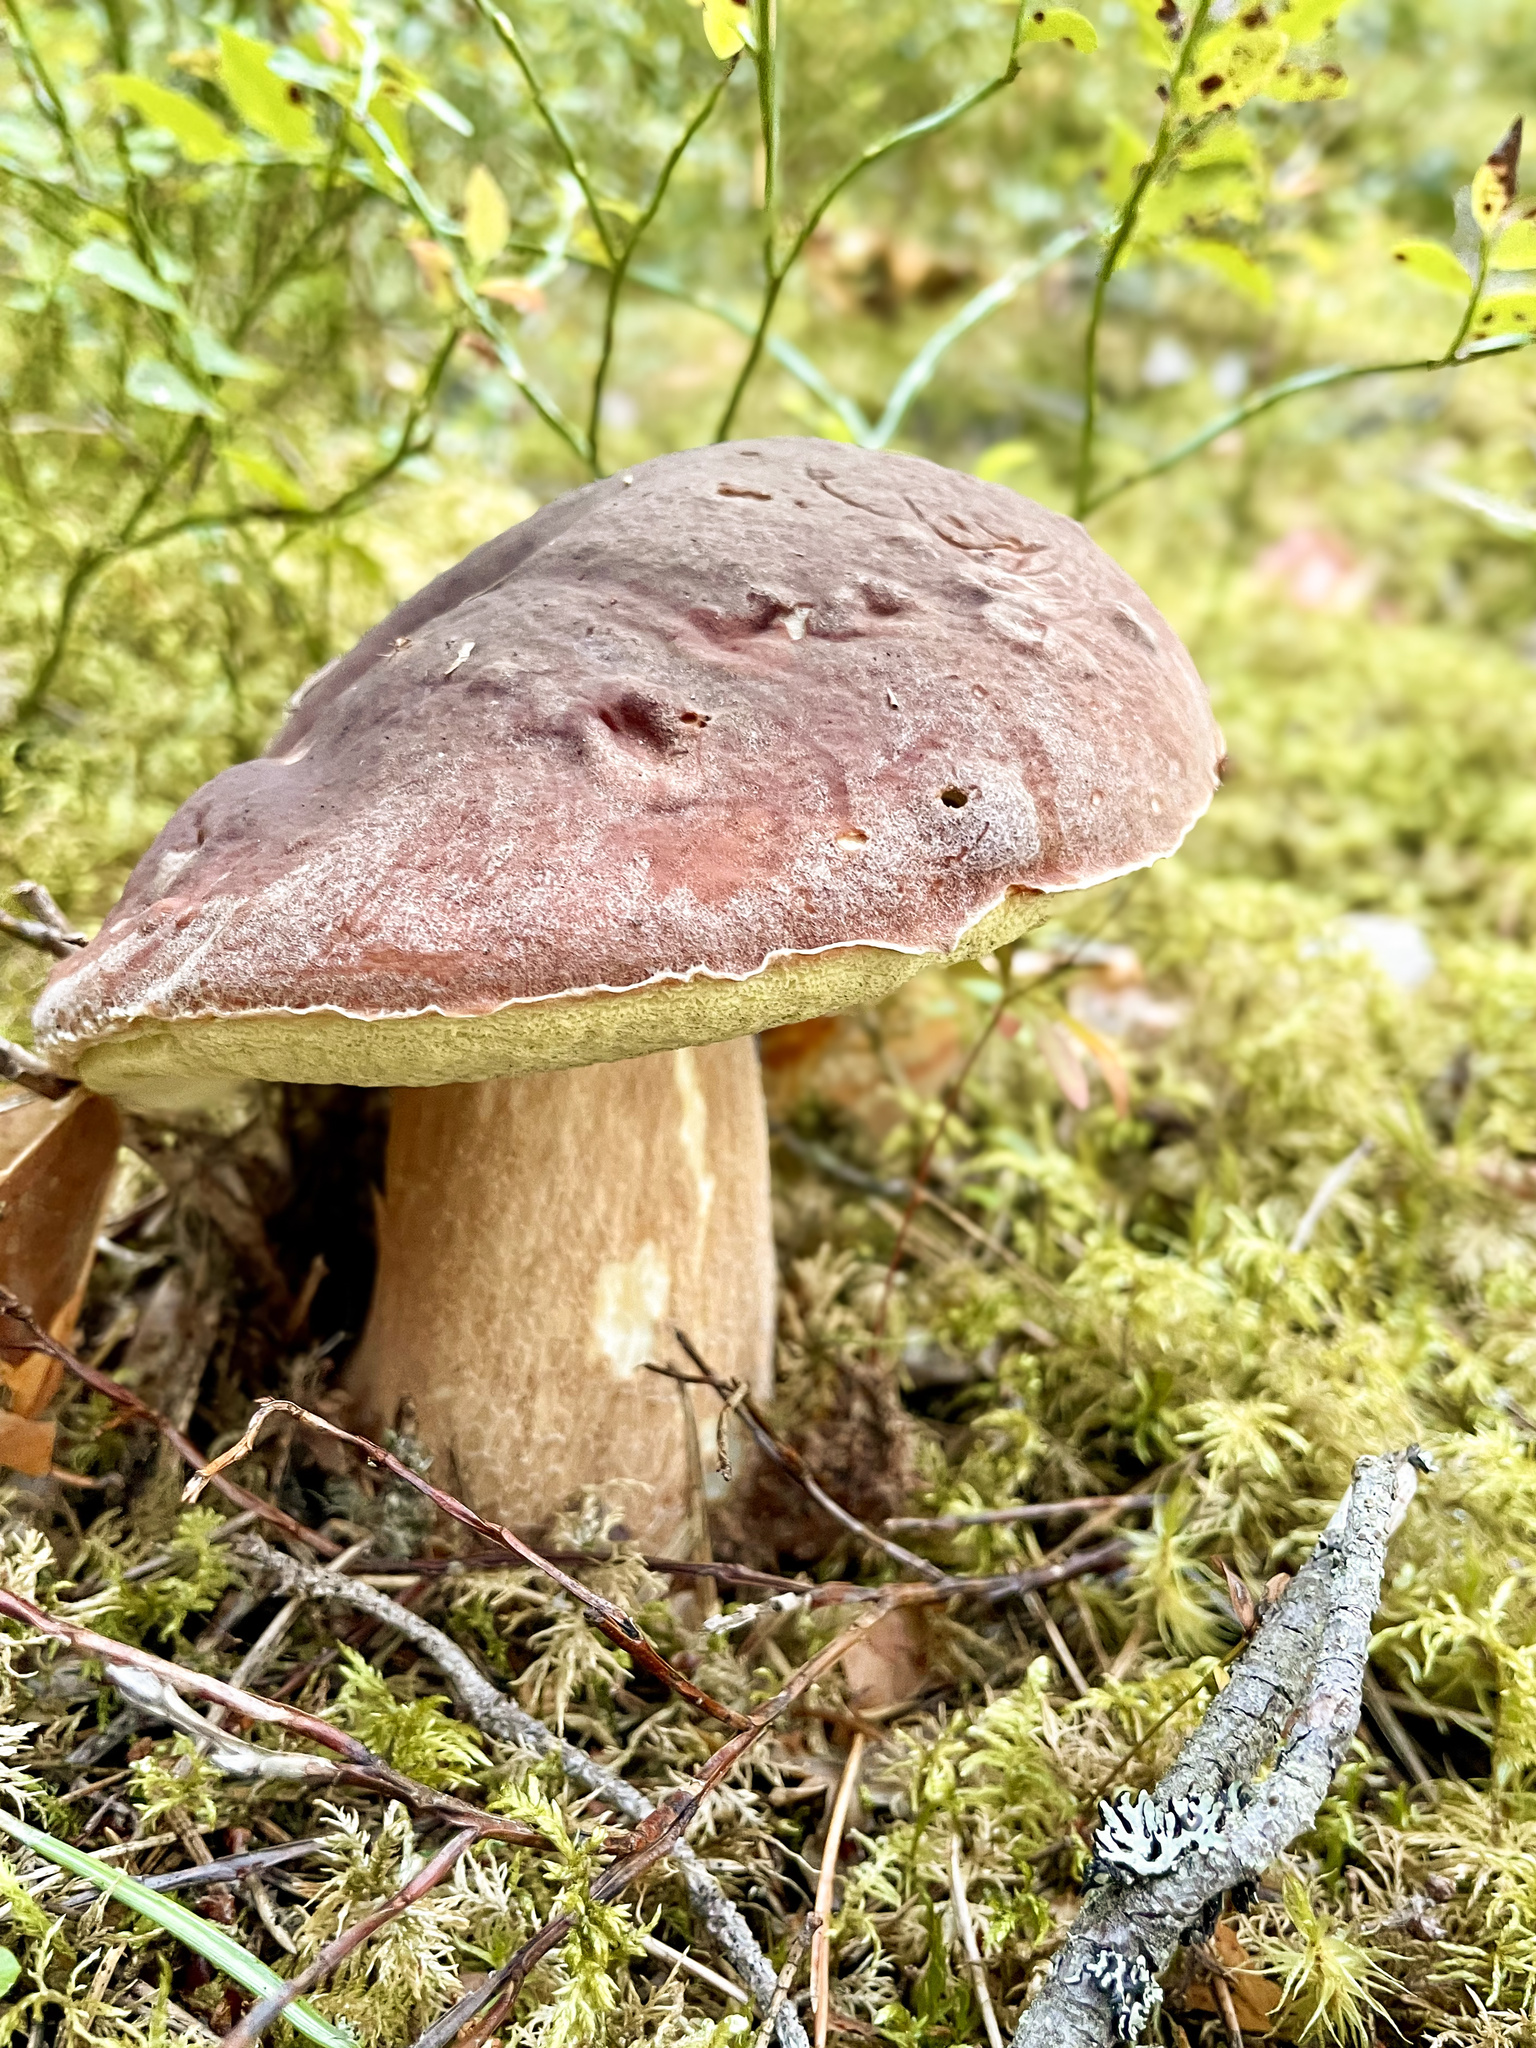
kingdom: Fungi
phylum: Basidiomycota
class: Agaricomycetes
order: Boletales
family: Boletaceae
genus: Boletus
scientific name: Boletus edulis
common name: Cep
